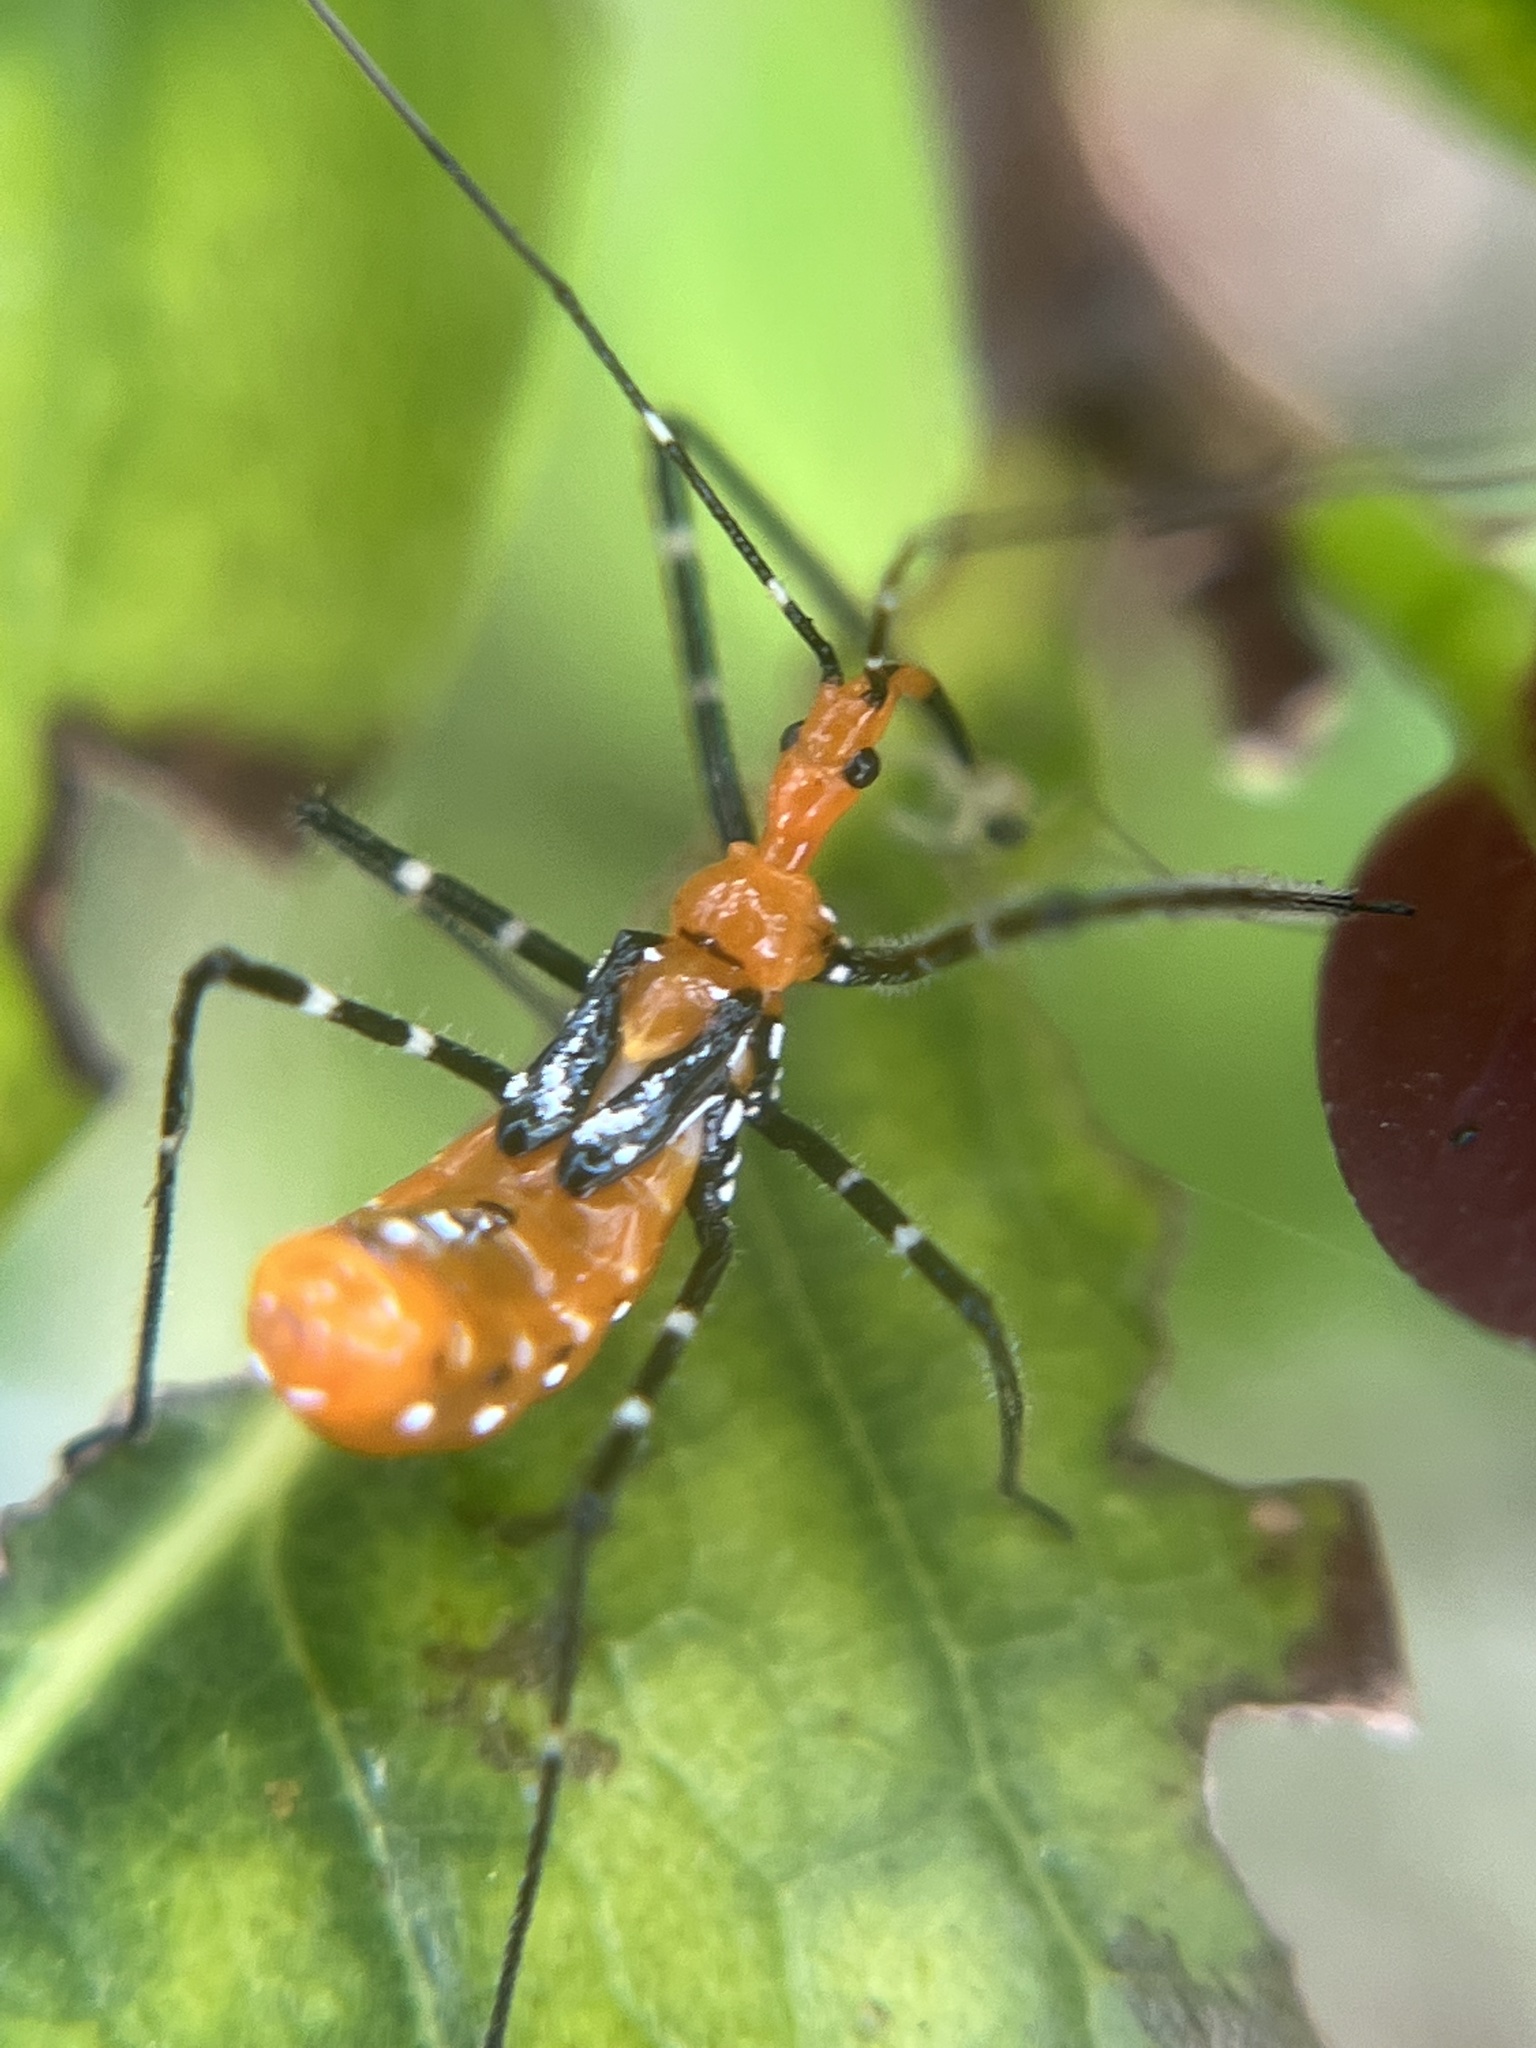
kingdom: Animalia
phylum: Arthropoda
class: Insecta
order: Hemiptera
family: Reduviidae
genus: Zelus
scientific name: Zelus longipes
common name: Milkweed assassin bug
